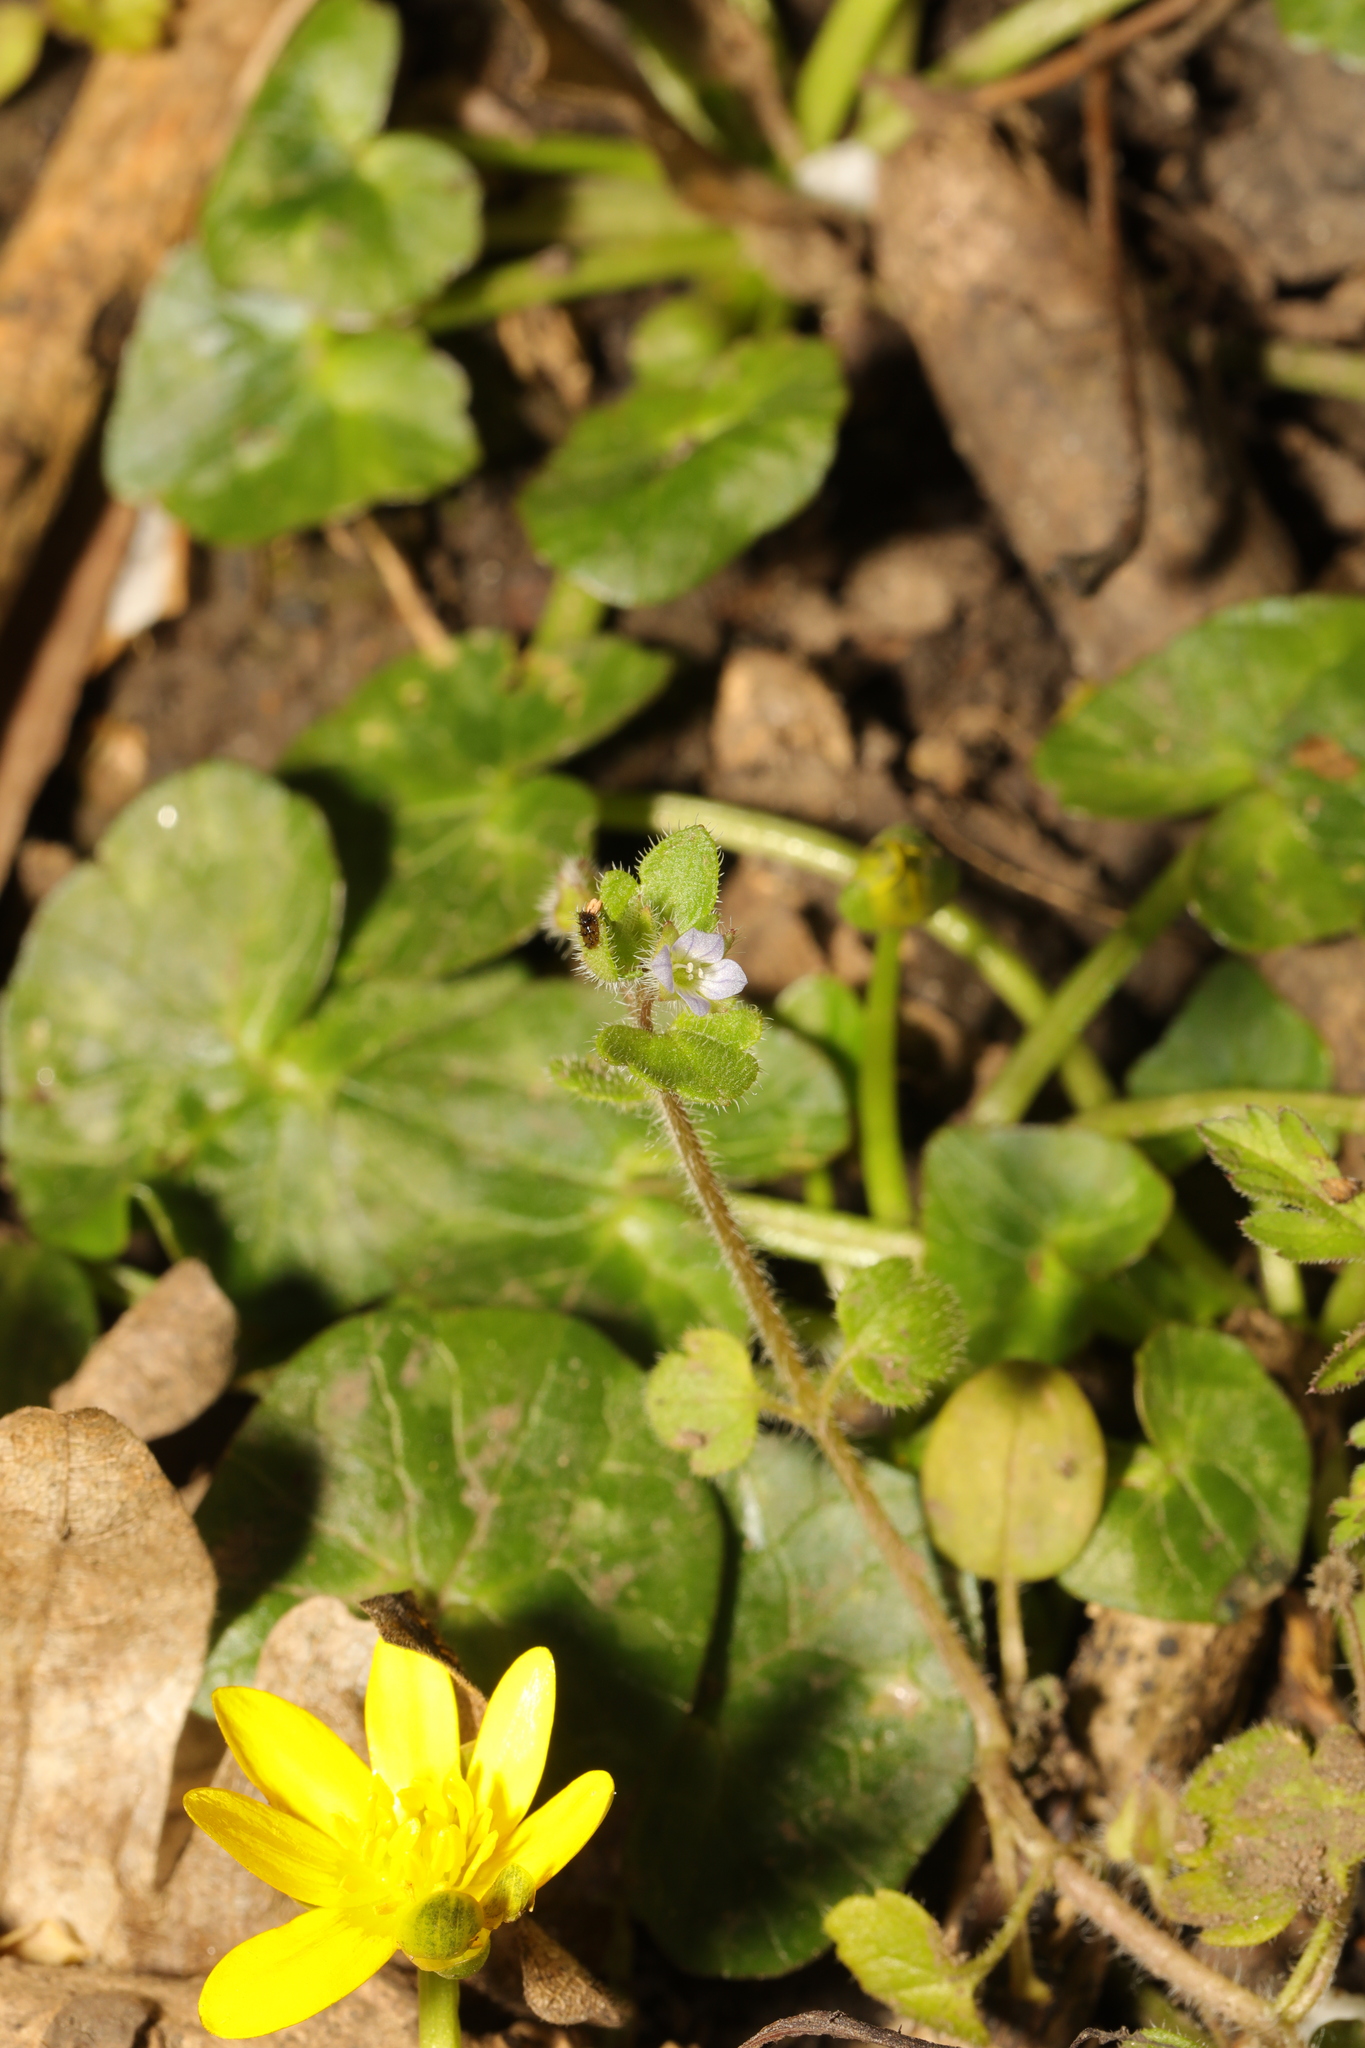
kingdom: Plantae
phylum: Tracheophyta
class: Magnoliopsida
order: Lamiales
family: Plantaginaceae
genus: Veronica
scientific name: Veronica sublobata
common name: False ivy-leaved speedwell
